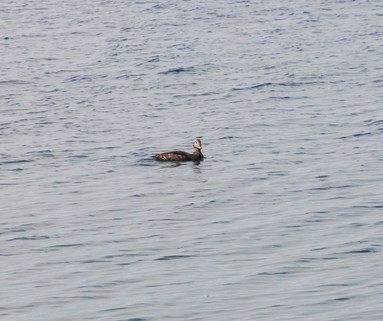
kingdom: Animalia
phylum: Chordata
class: Aves
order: Anseriformes
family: Anatidae
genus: Somateria
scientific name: Somateria mollissima
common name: Common eider
